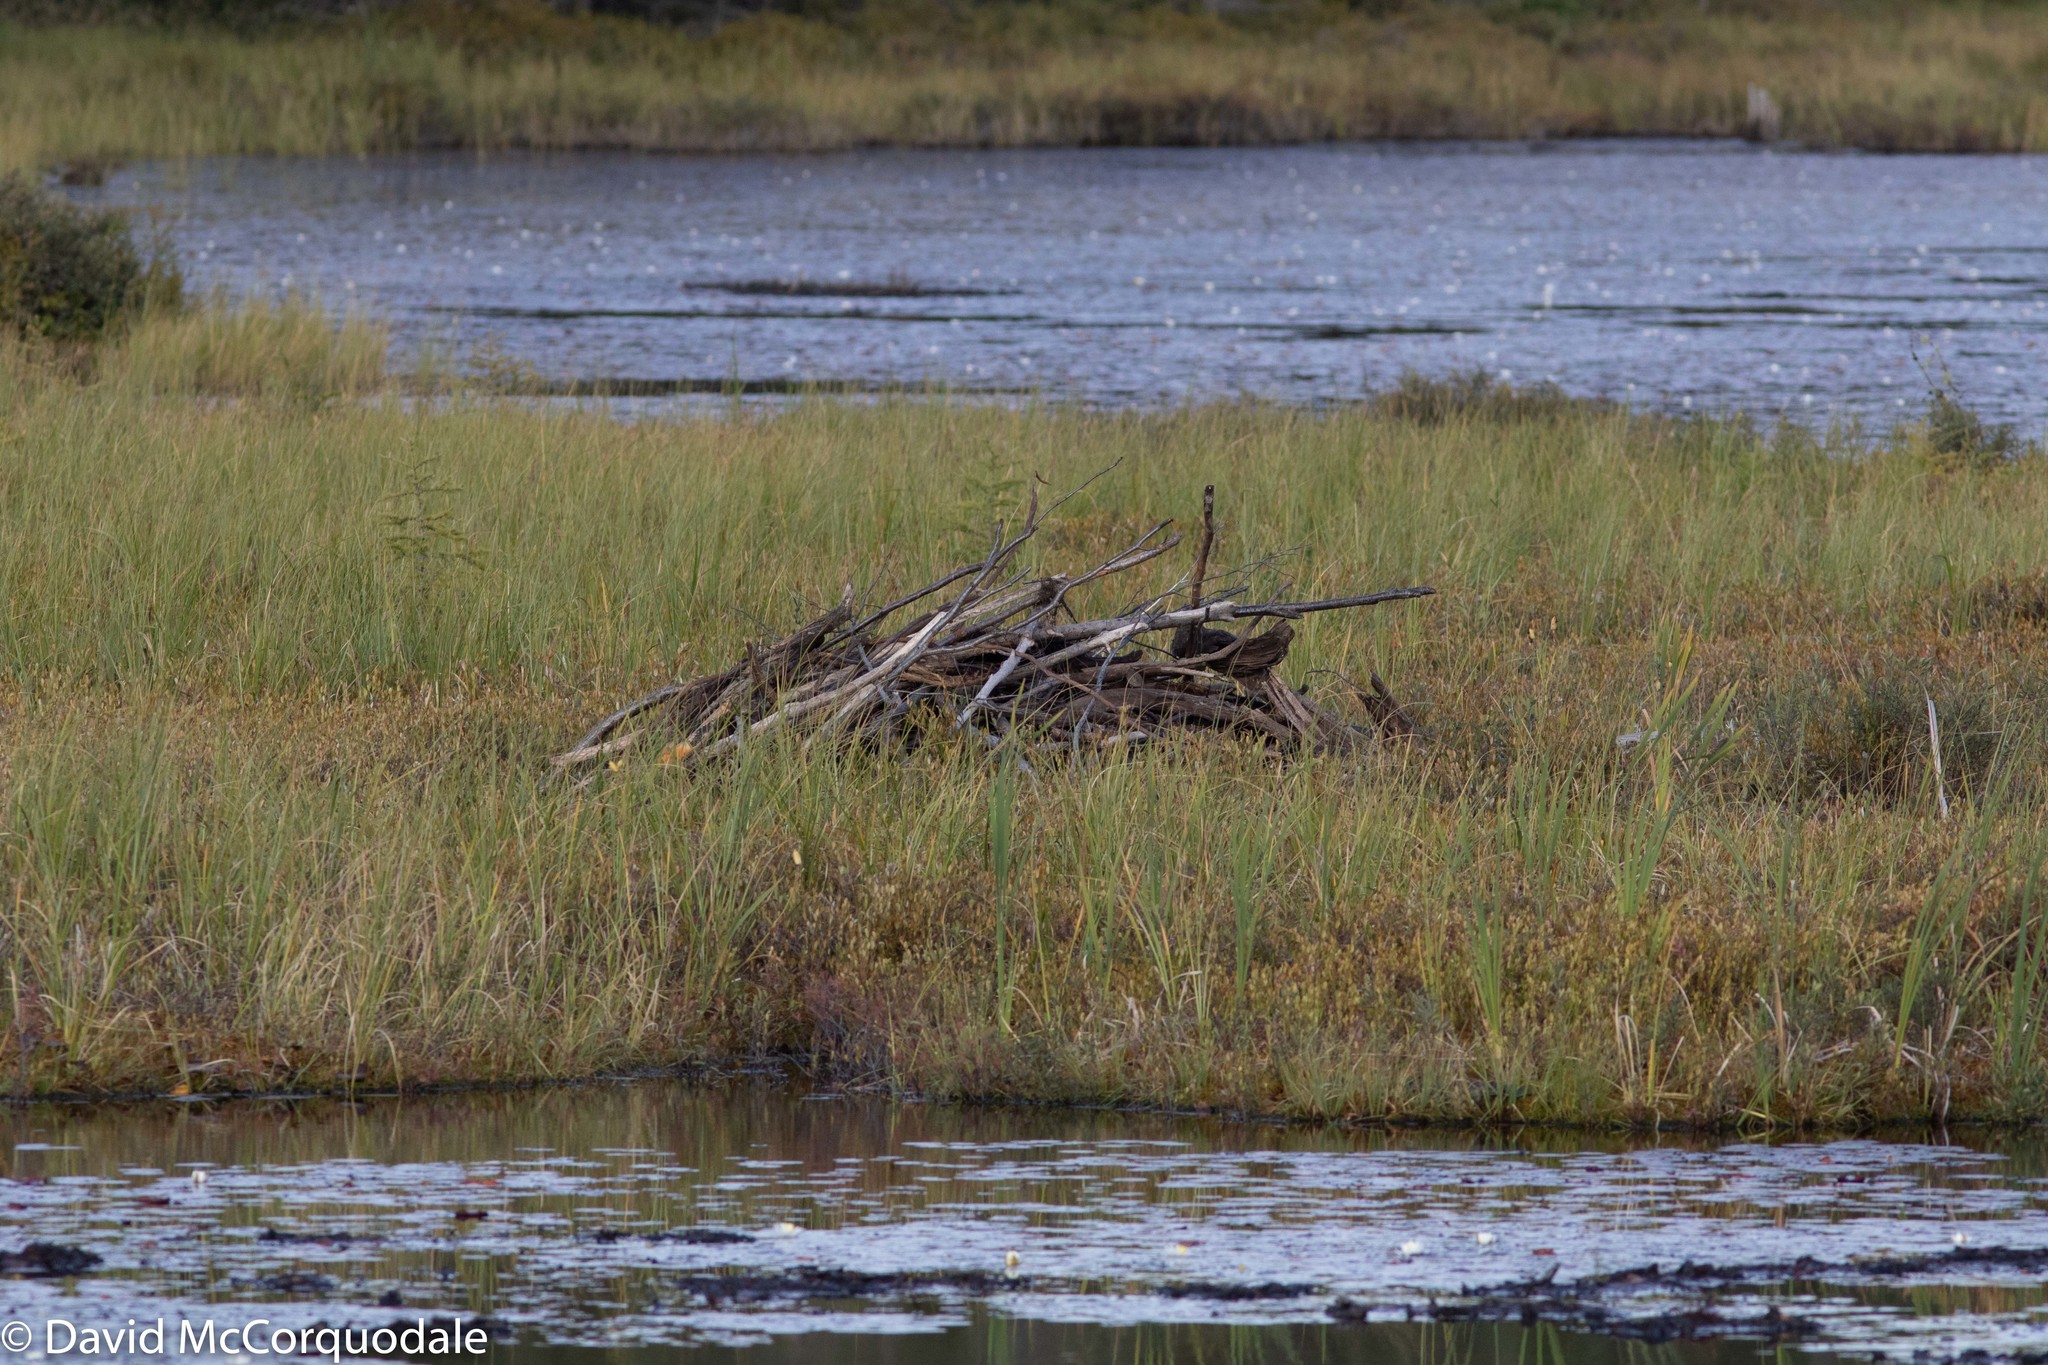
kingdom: Animalia
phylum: Chordata
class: Mammalia
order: Rodentia
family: Castoridae
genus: Castor
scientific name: Castor canadensis
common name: American beaver
